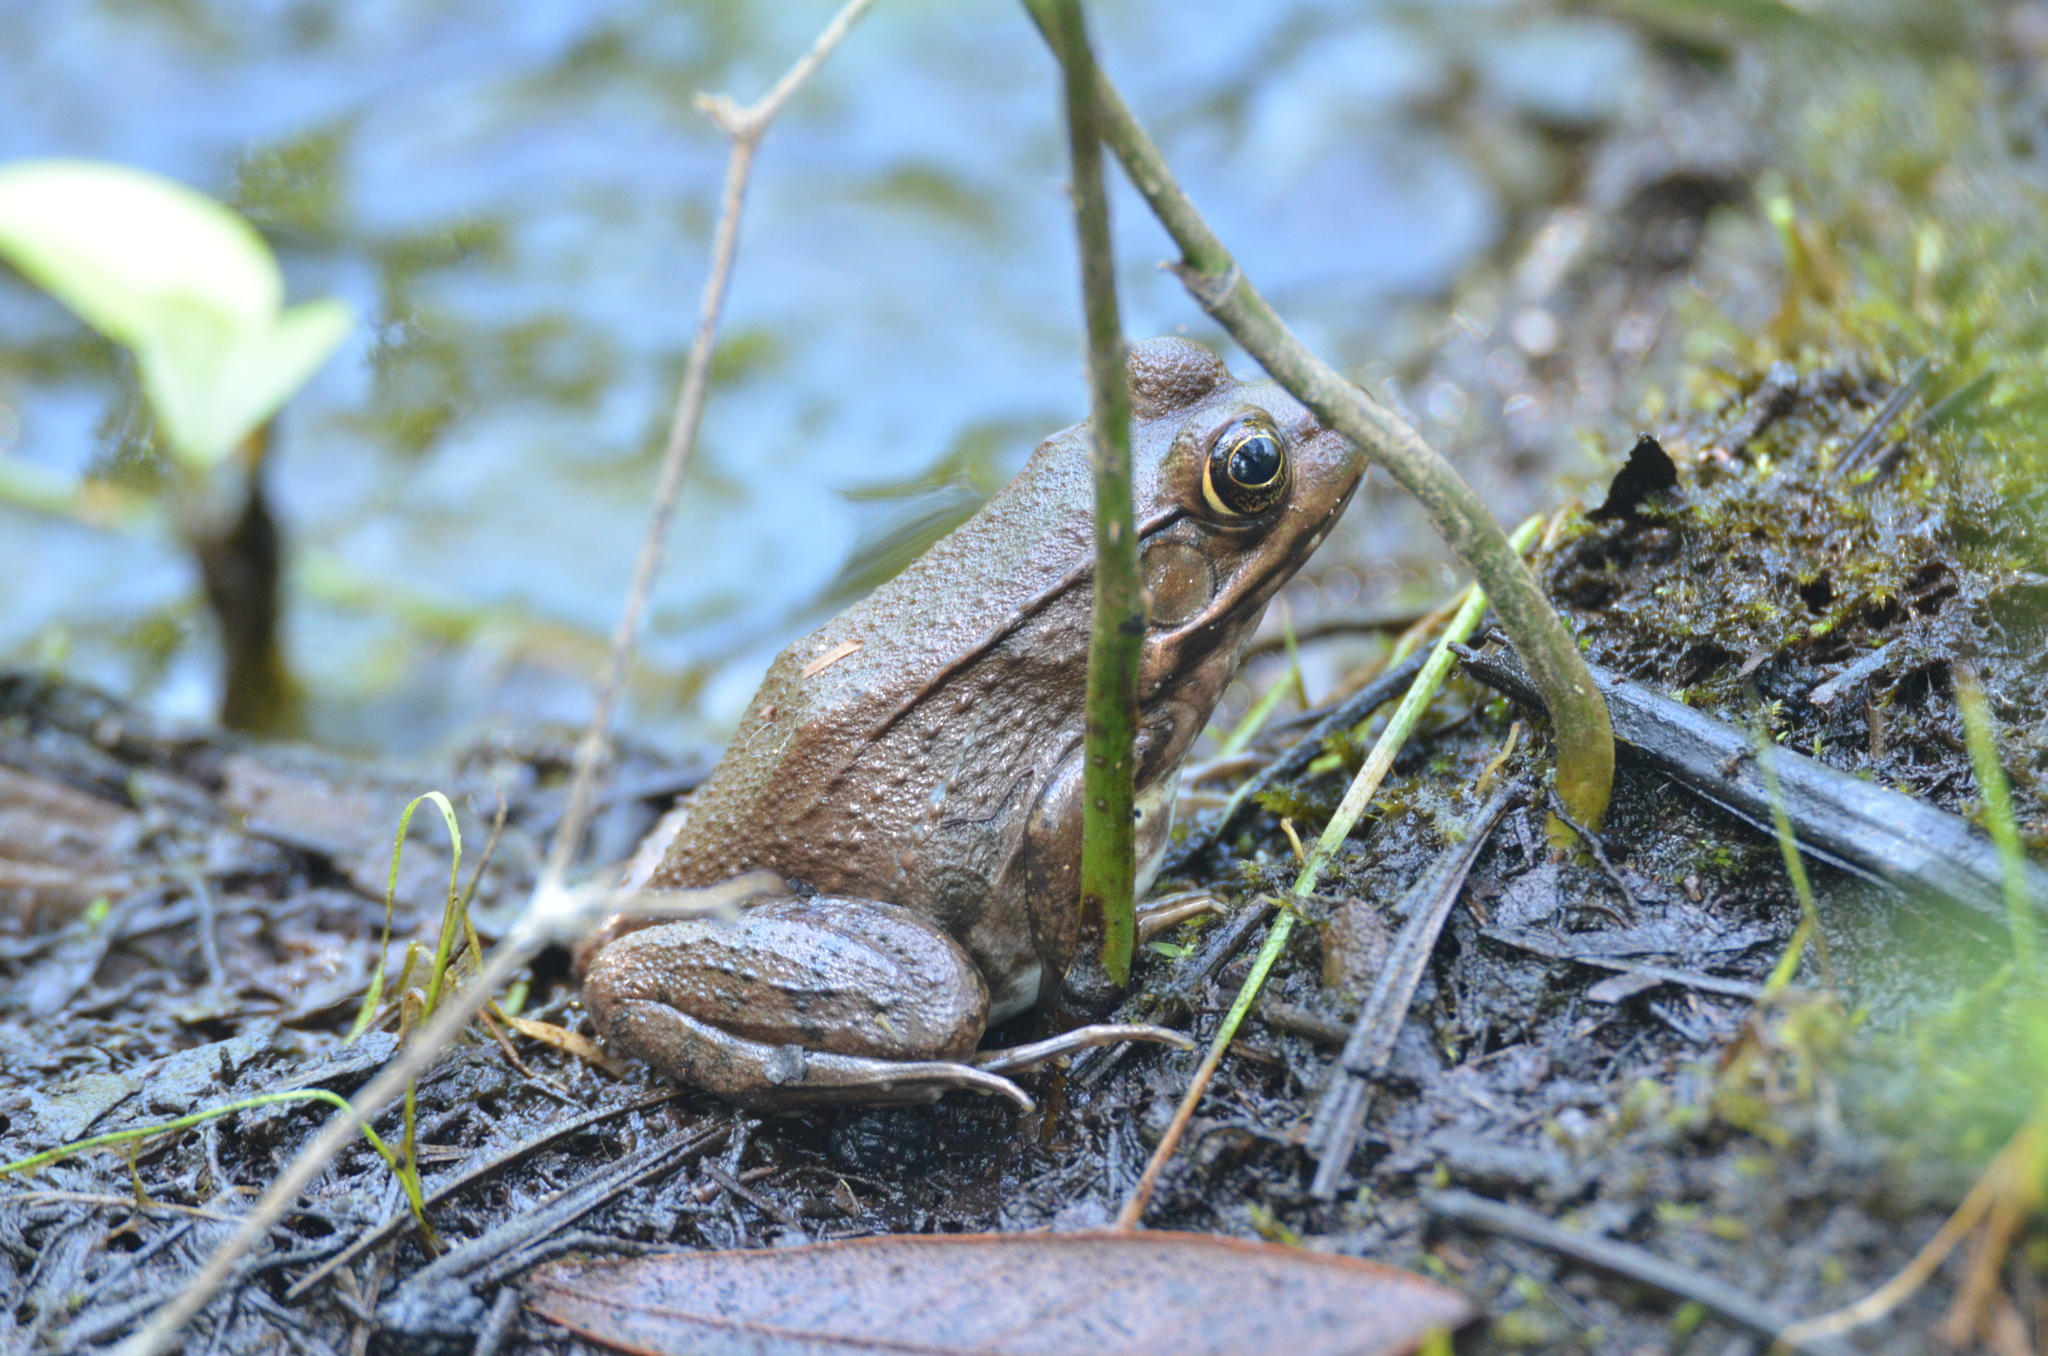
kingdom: Animalia
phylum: Chordata
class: Amphibia
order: Anura
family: Ranidae
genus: Lithobates
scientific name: Lithobates clamitans
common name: Green frog
